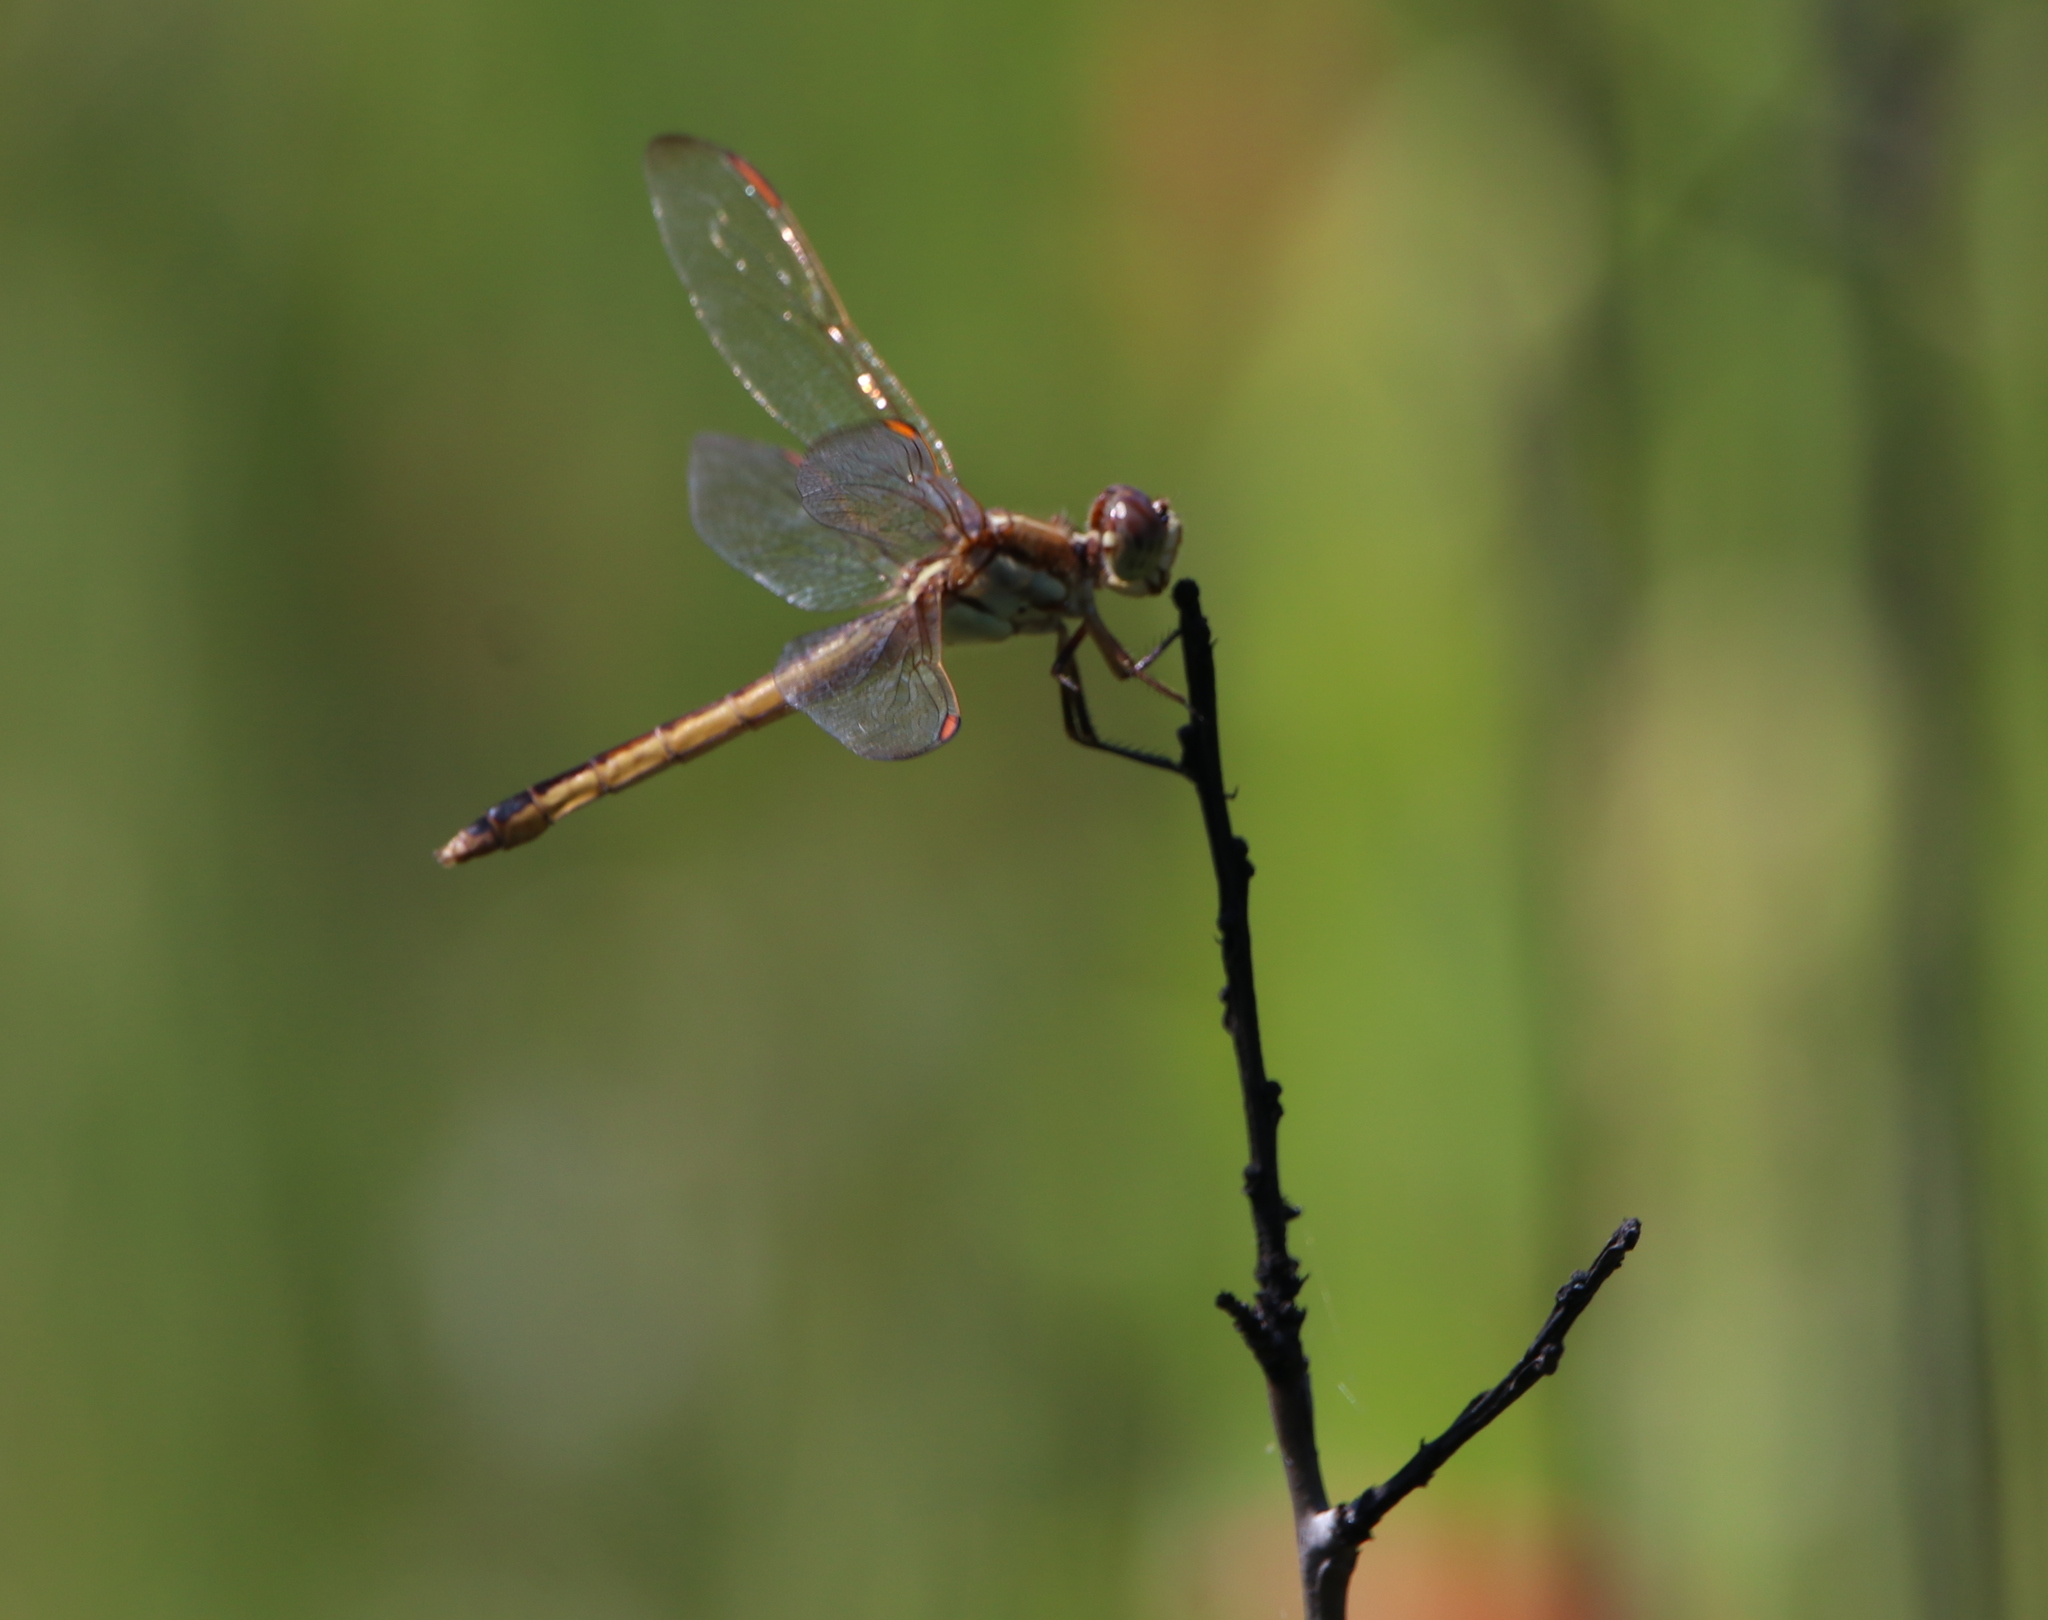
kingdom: Animalia
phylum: Arthropoda
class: Insecta
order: Odonata
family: Libellulidae
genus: Libellula
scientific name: Libellula auripennis
